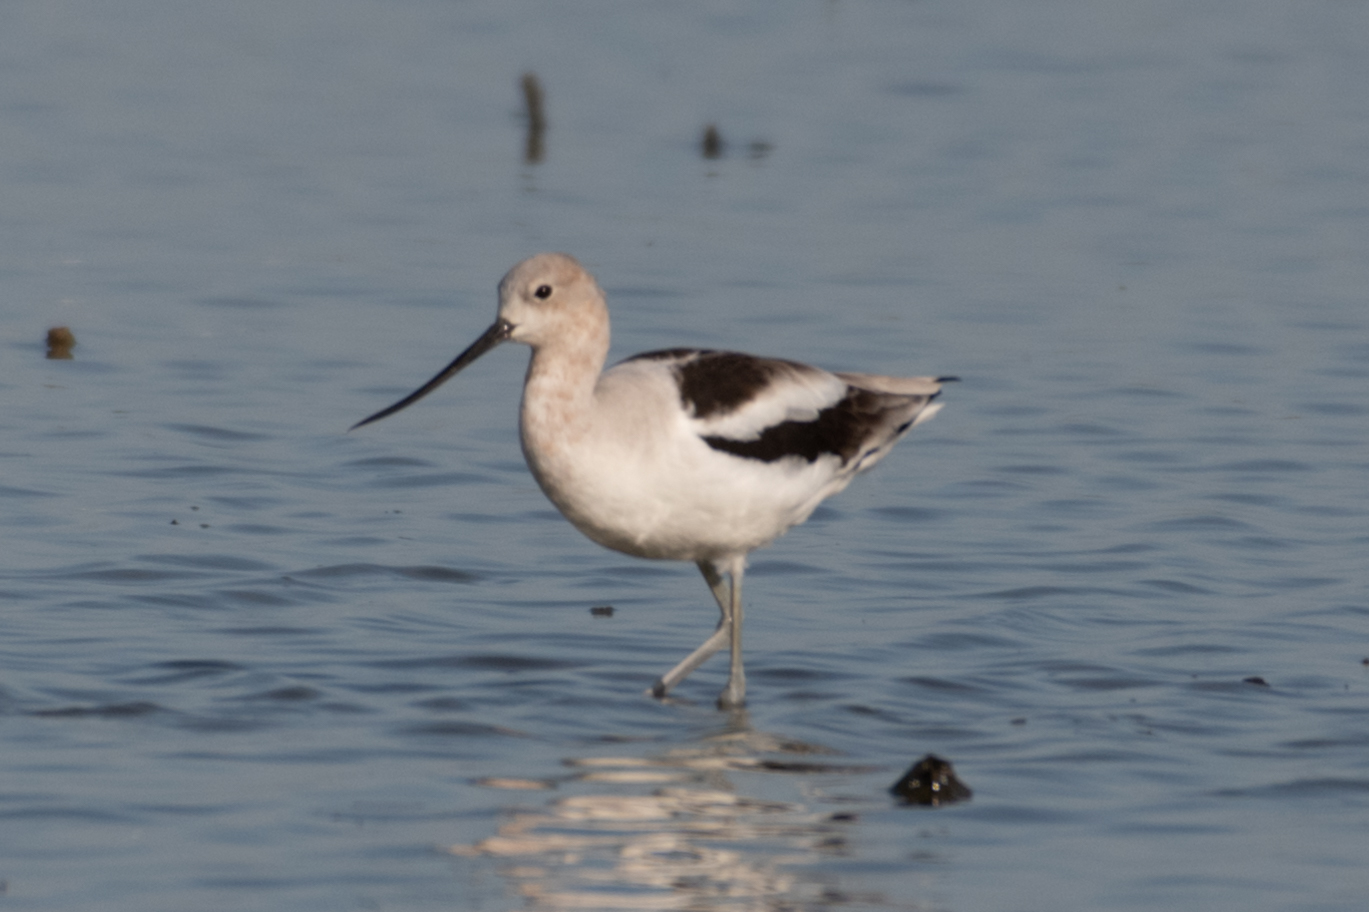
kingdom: Animalia
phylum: Chordata
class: Aves
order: Charadriiformes
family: Recurvirostridae
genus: Recurvirostra
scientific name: Recurvirostra americana
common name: American avocet
